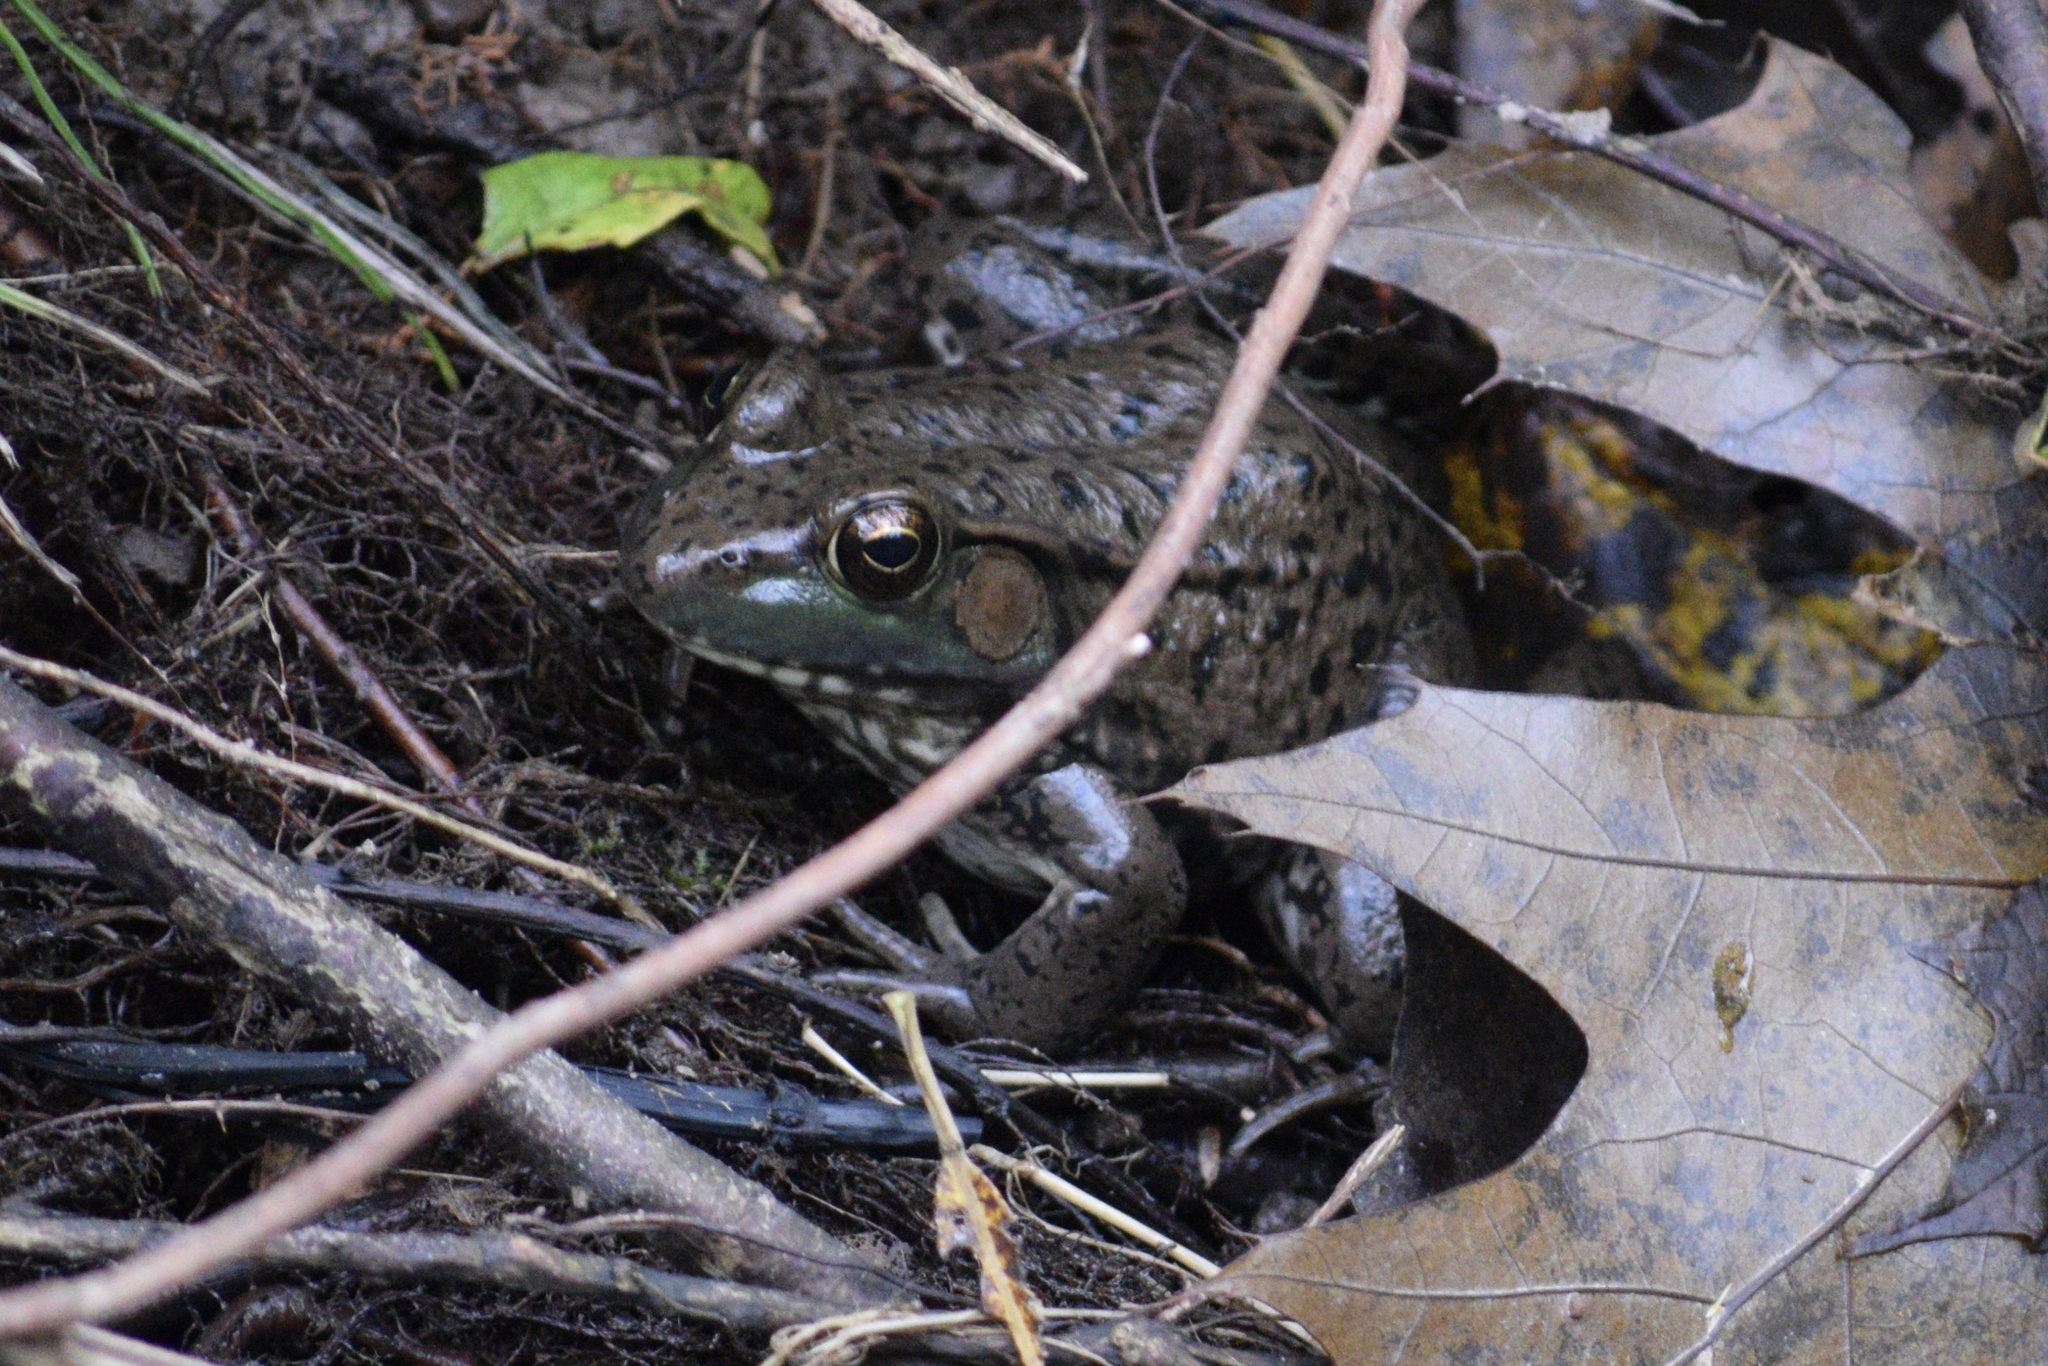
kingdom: Animalia
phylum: Chordata
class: Amphibia
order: Anura
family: Ranidae
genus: Lithobates
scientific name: Lithobates clamitans
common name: Green frog
